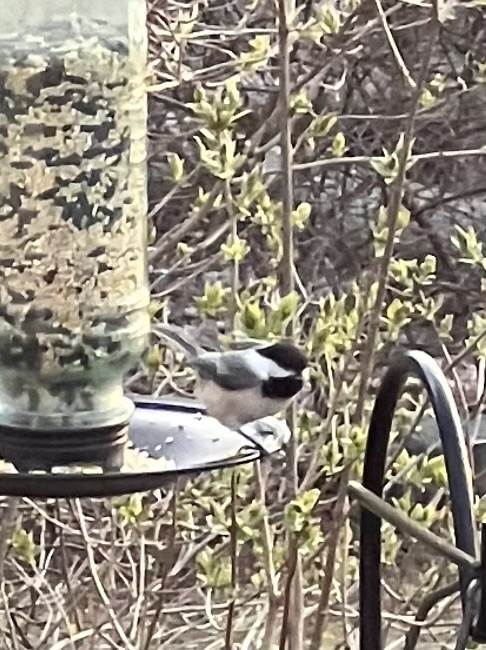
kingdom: Animalia
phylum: Chordata
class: Aves
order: Passeriformes
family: Paridae
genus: Poecile
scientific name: Poecile atricapillus
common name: Black-capped chickadee
